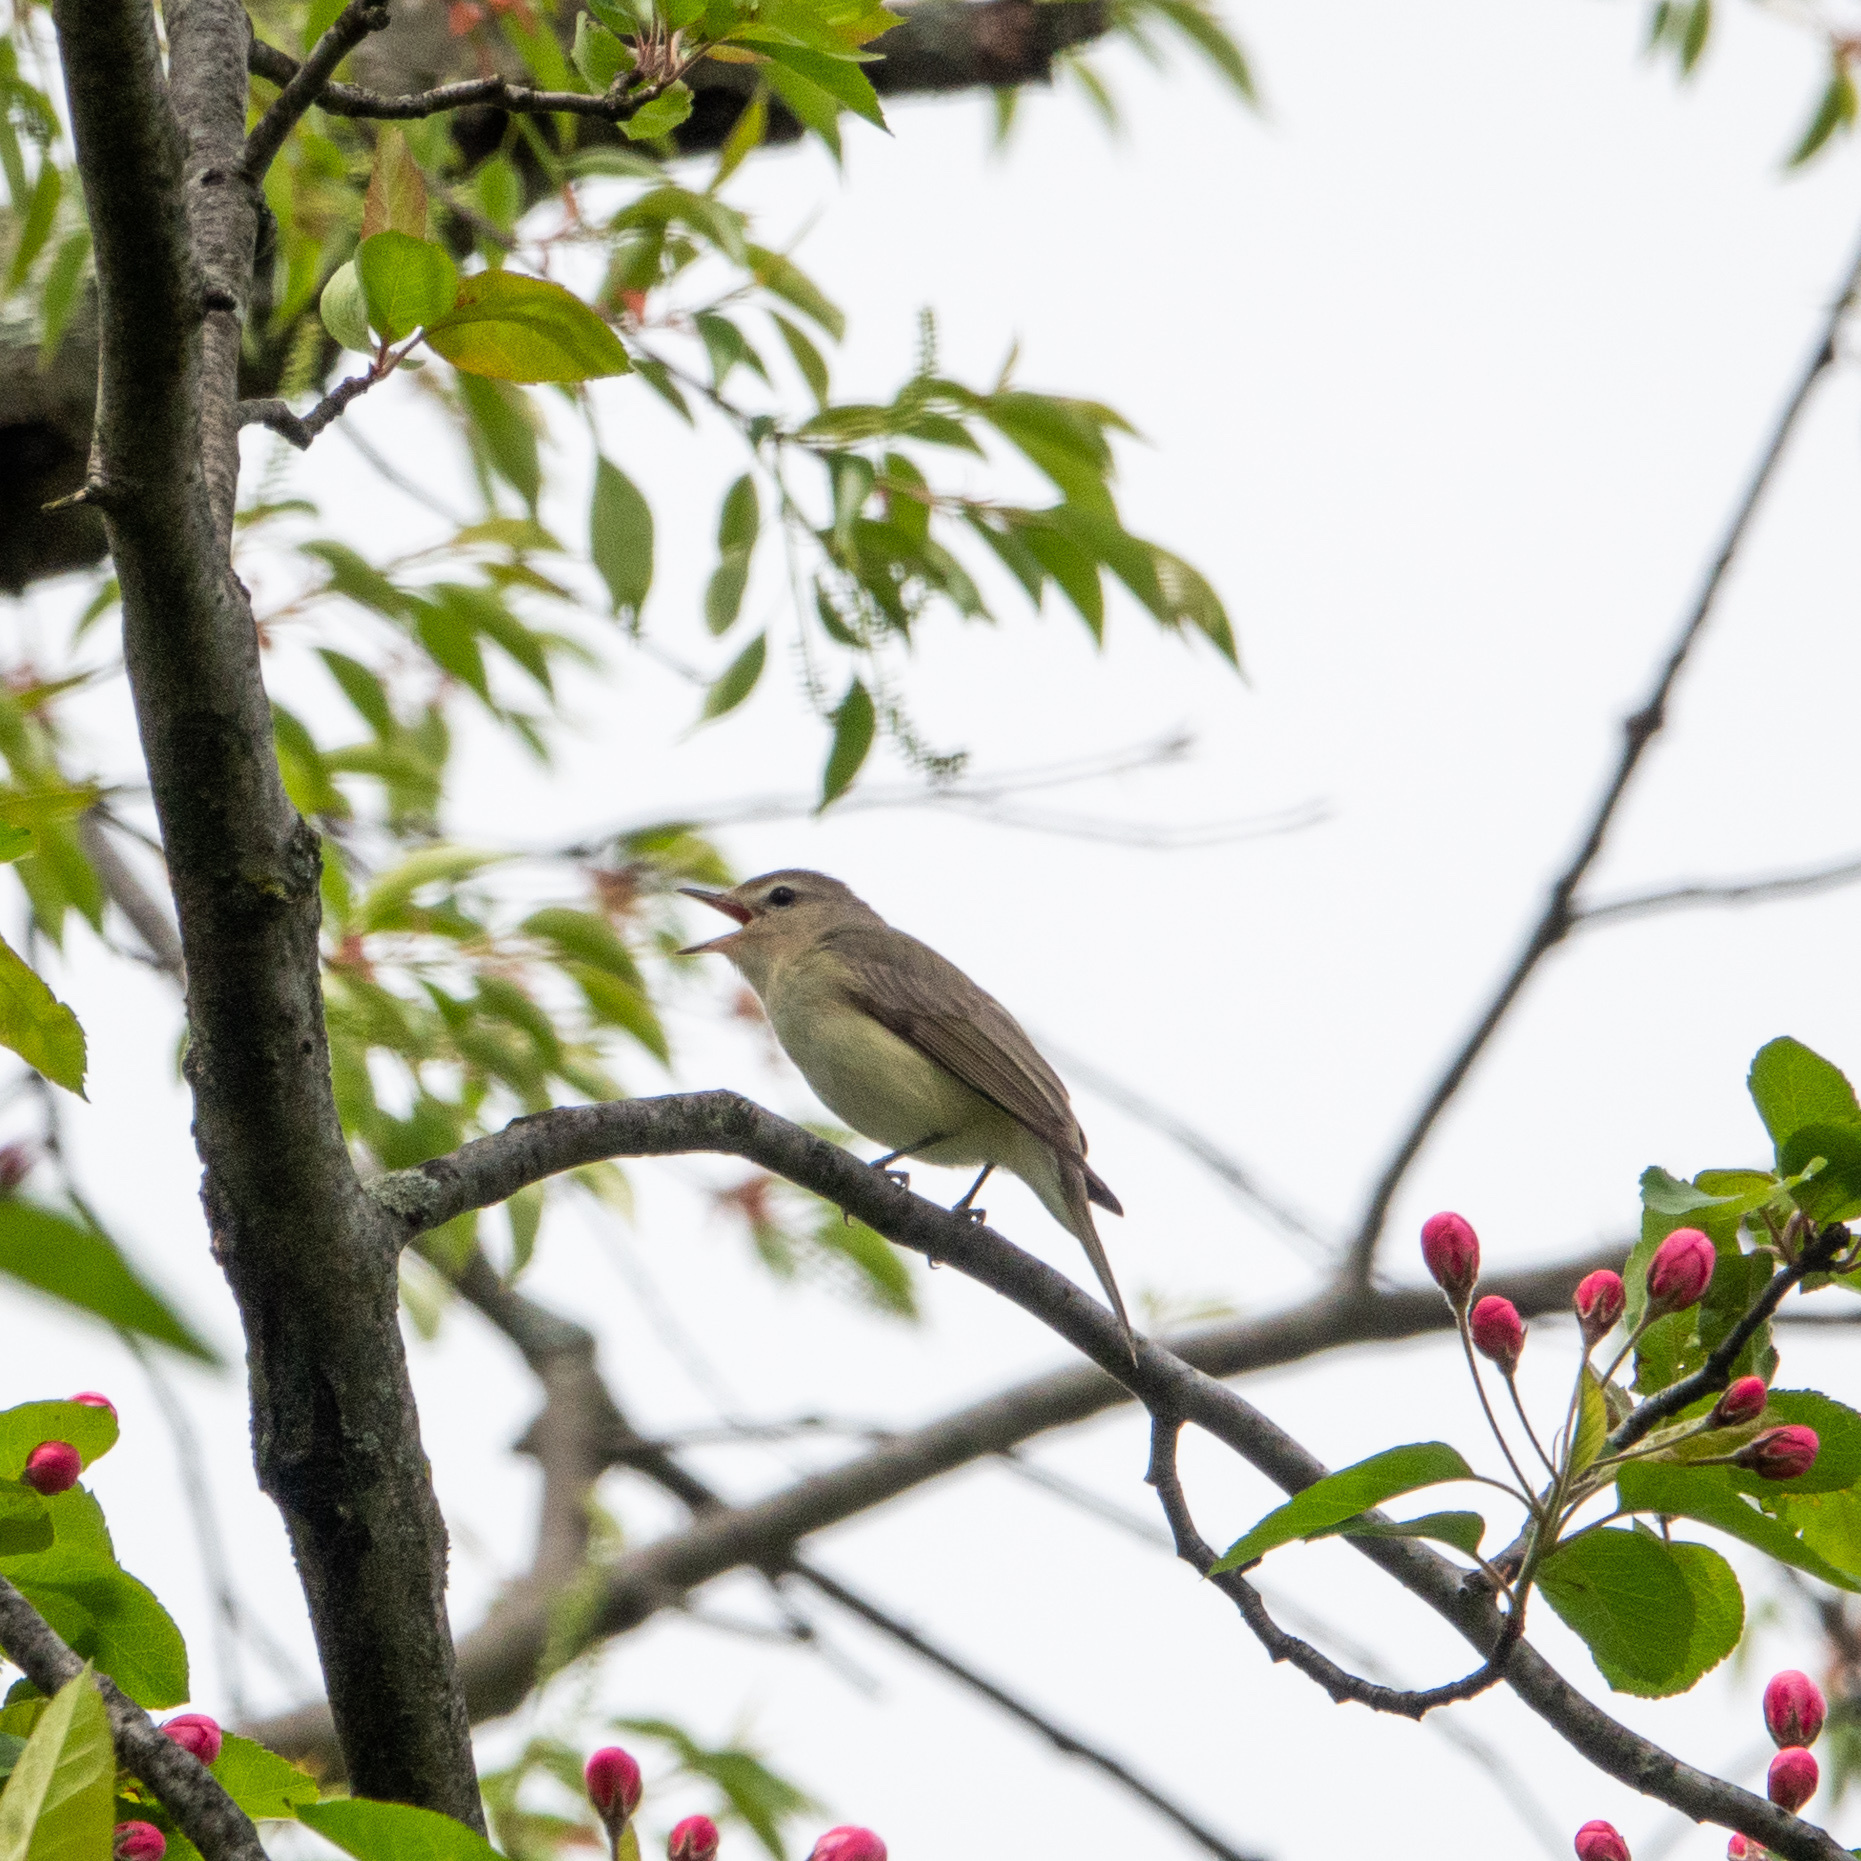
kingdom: Animalia
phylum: Chordata
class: Aves
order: Passeriformes
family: Vireonidae
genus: Vireo
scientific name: Vireo gilvus
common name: Warbling vireo
